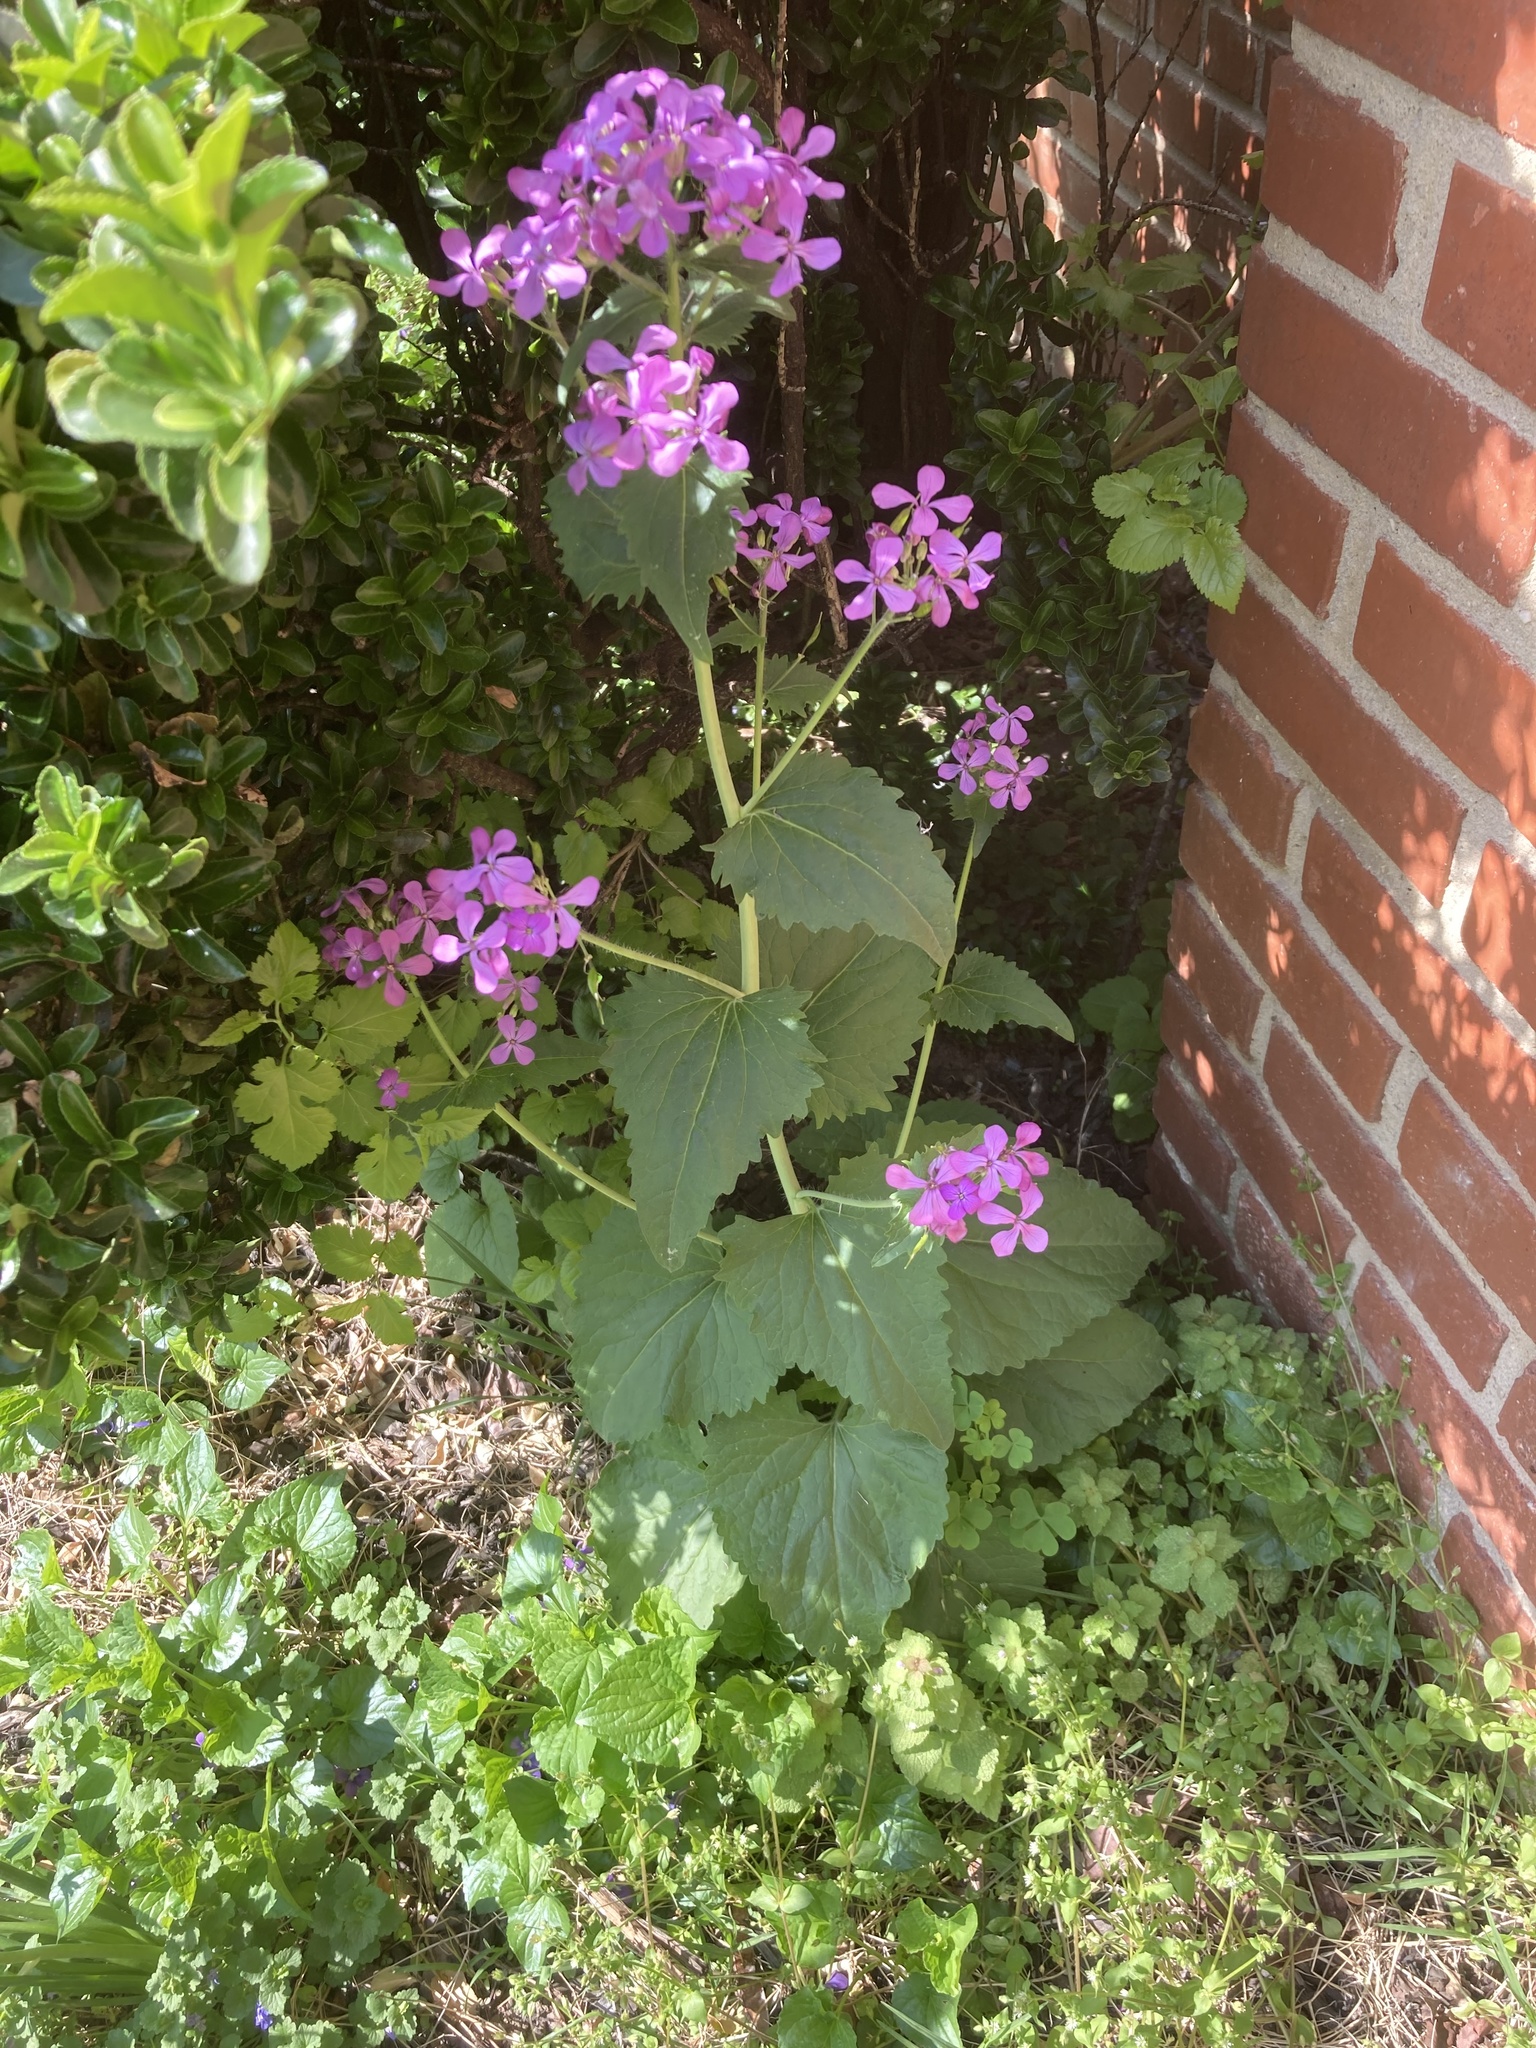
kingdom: Plantae
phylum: Tracheophyta
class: Magnoliopsida
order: Brassicales
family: Brassicaceae
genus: Lunaria
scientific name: Lunaria annua
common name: Honesty
